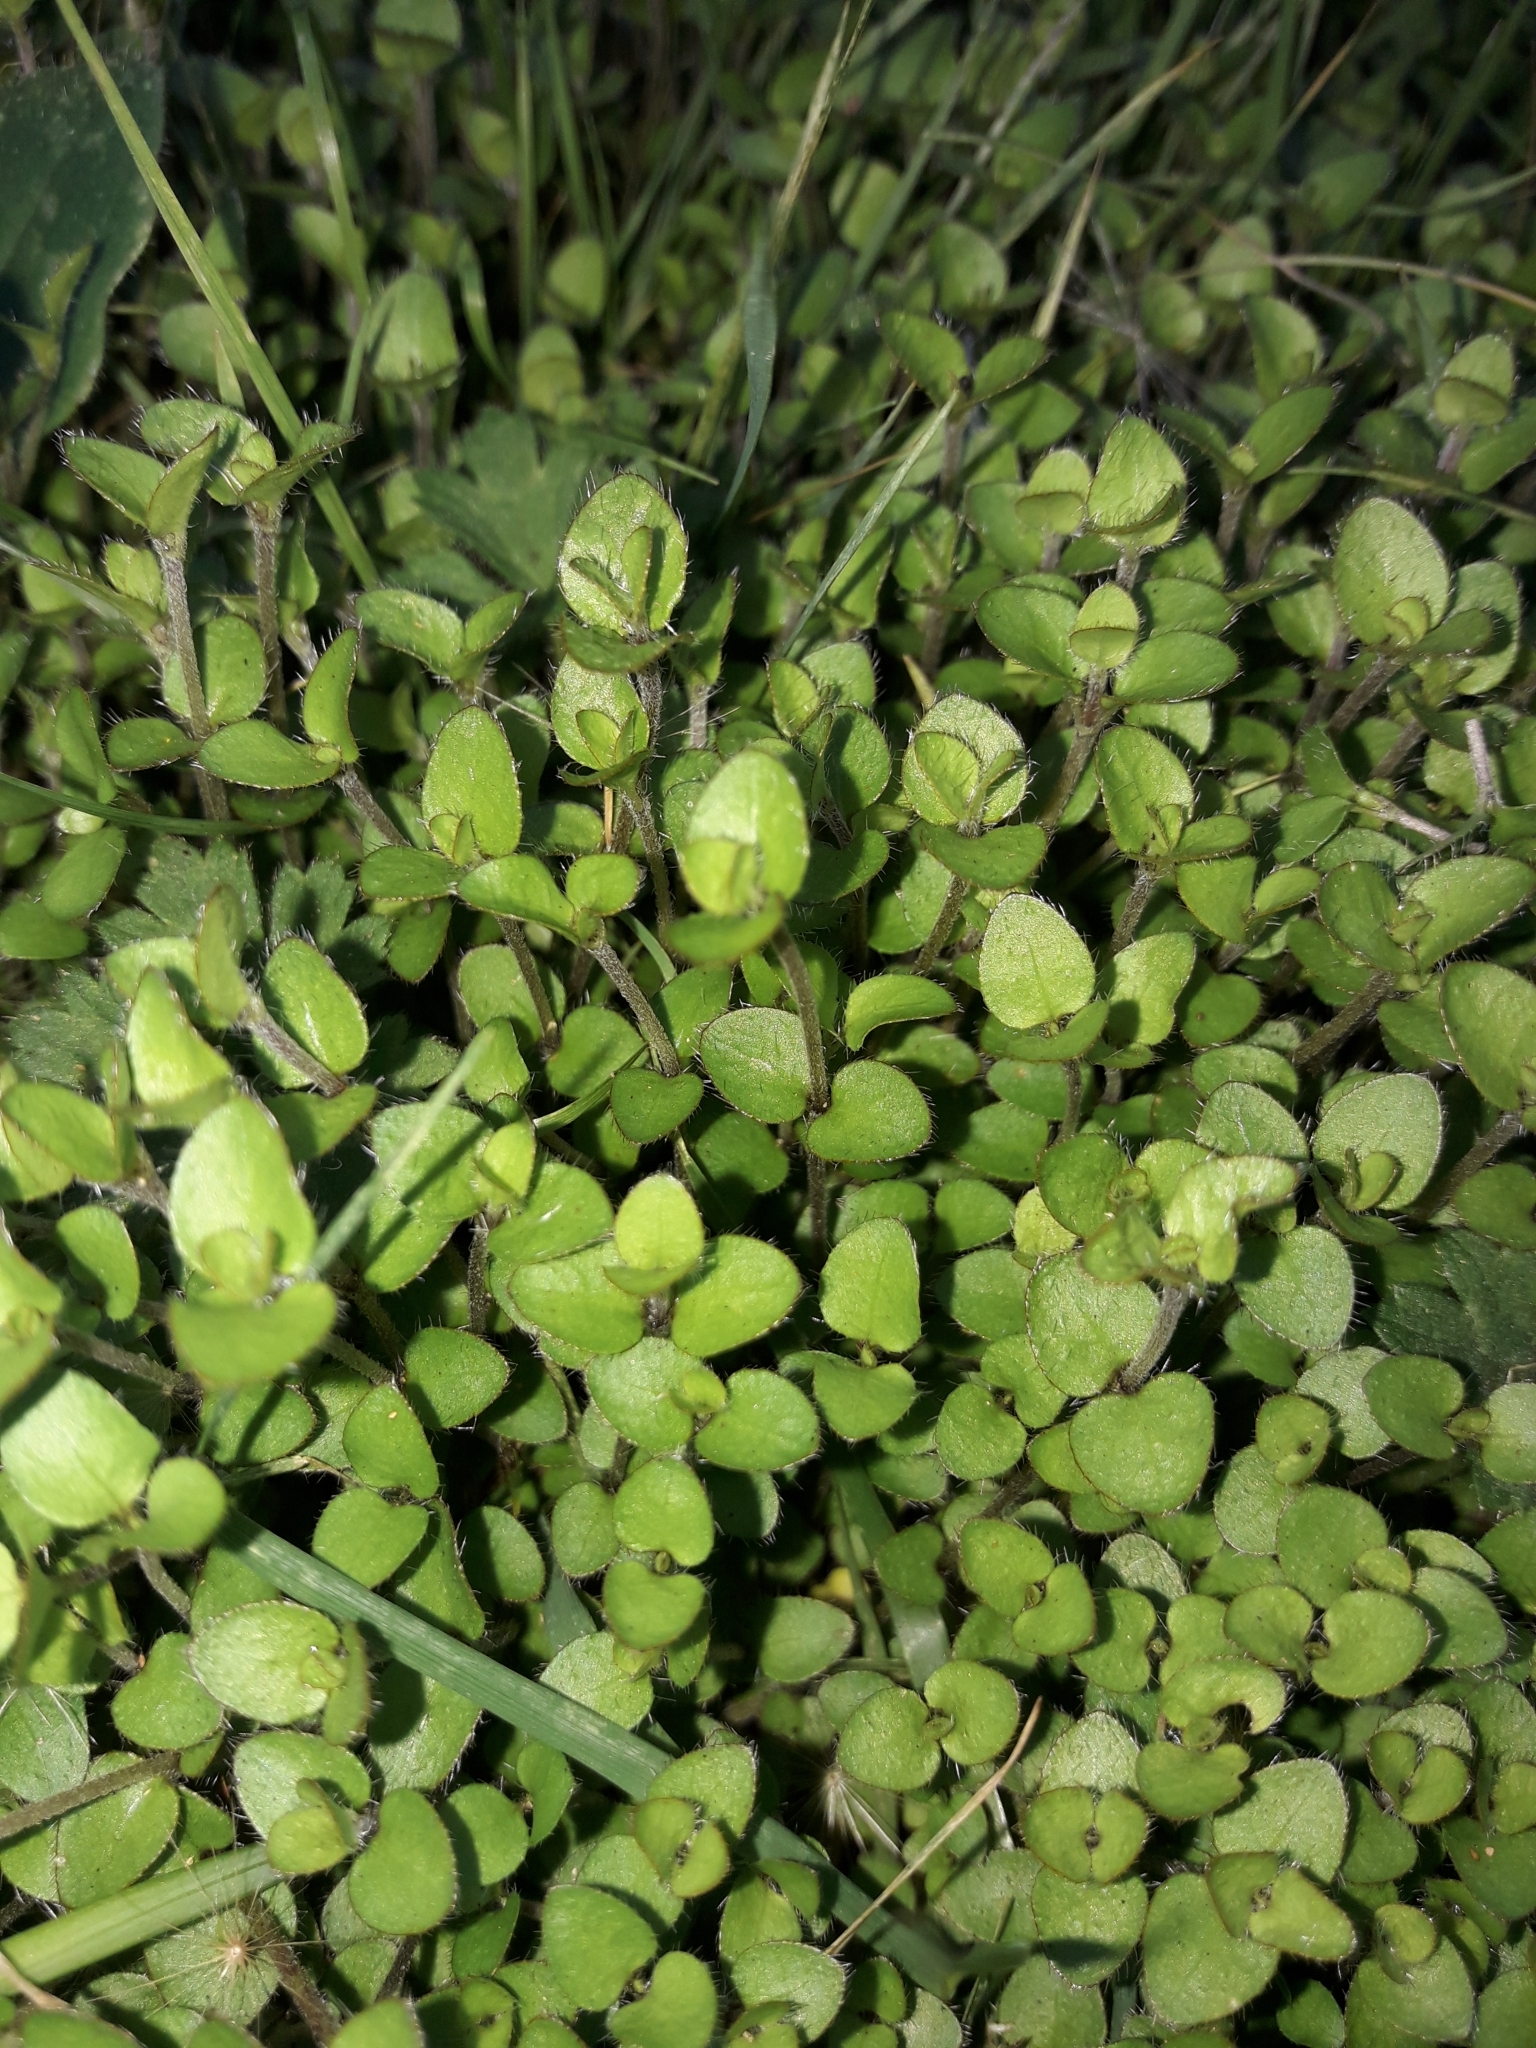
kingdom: Plantae
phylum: Tracheophyta
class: Magnoliopsida
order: Gentianales
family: Rubiaceae
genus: Leptostigma
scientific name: Leptostigma setulosum
